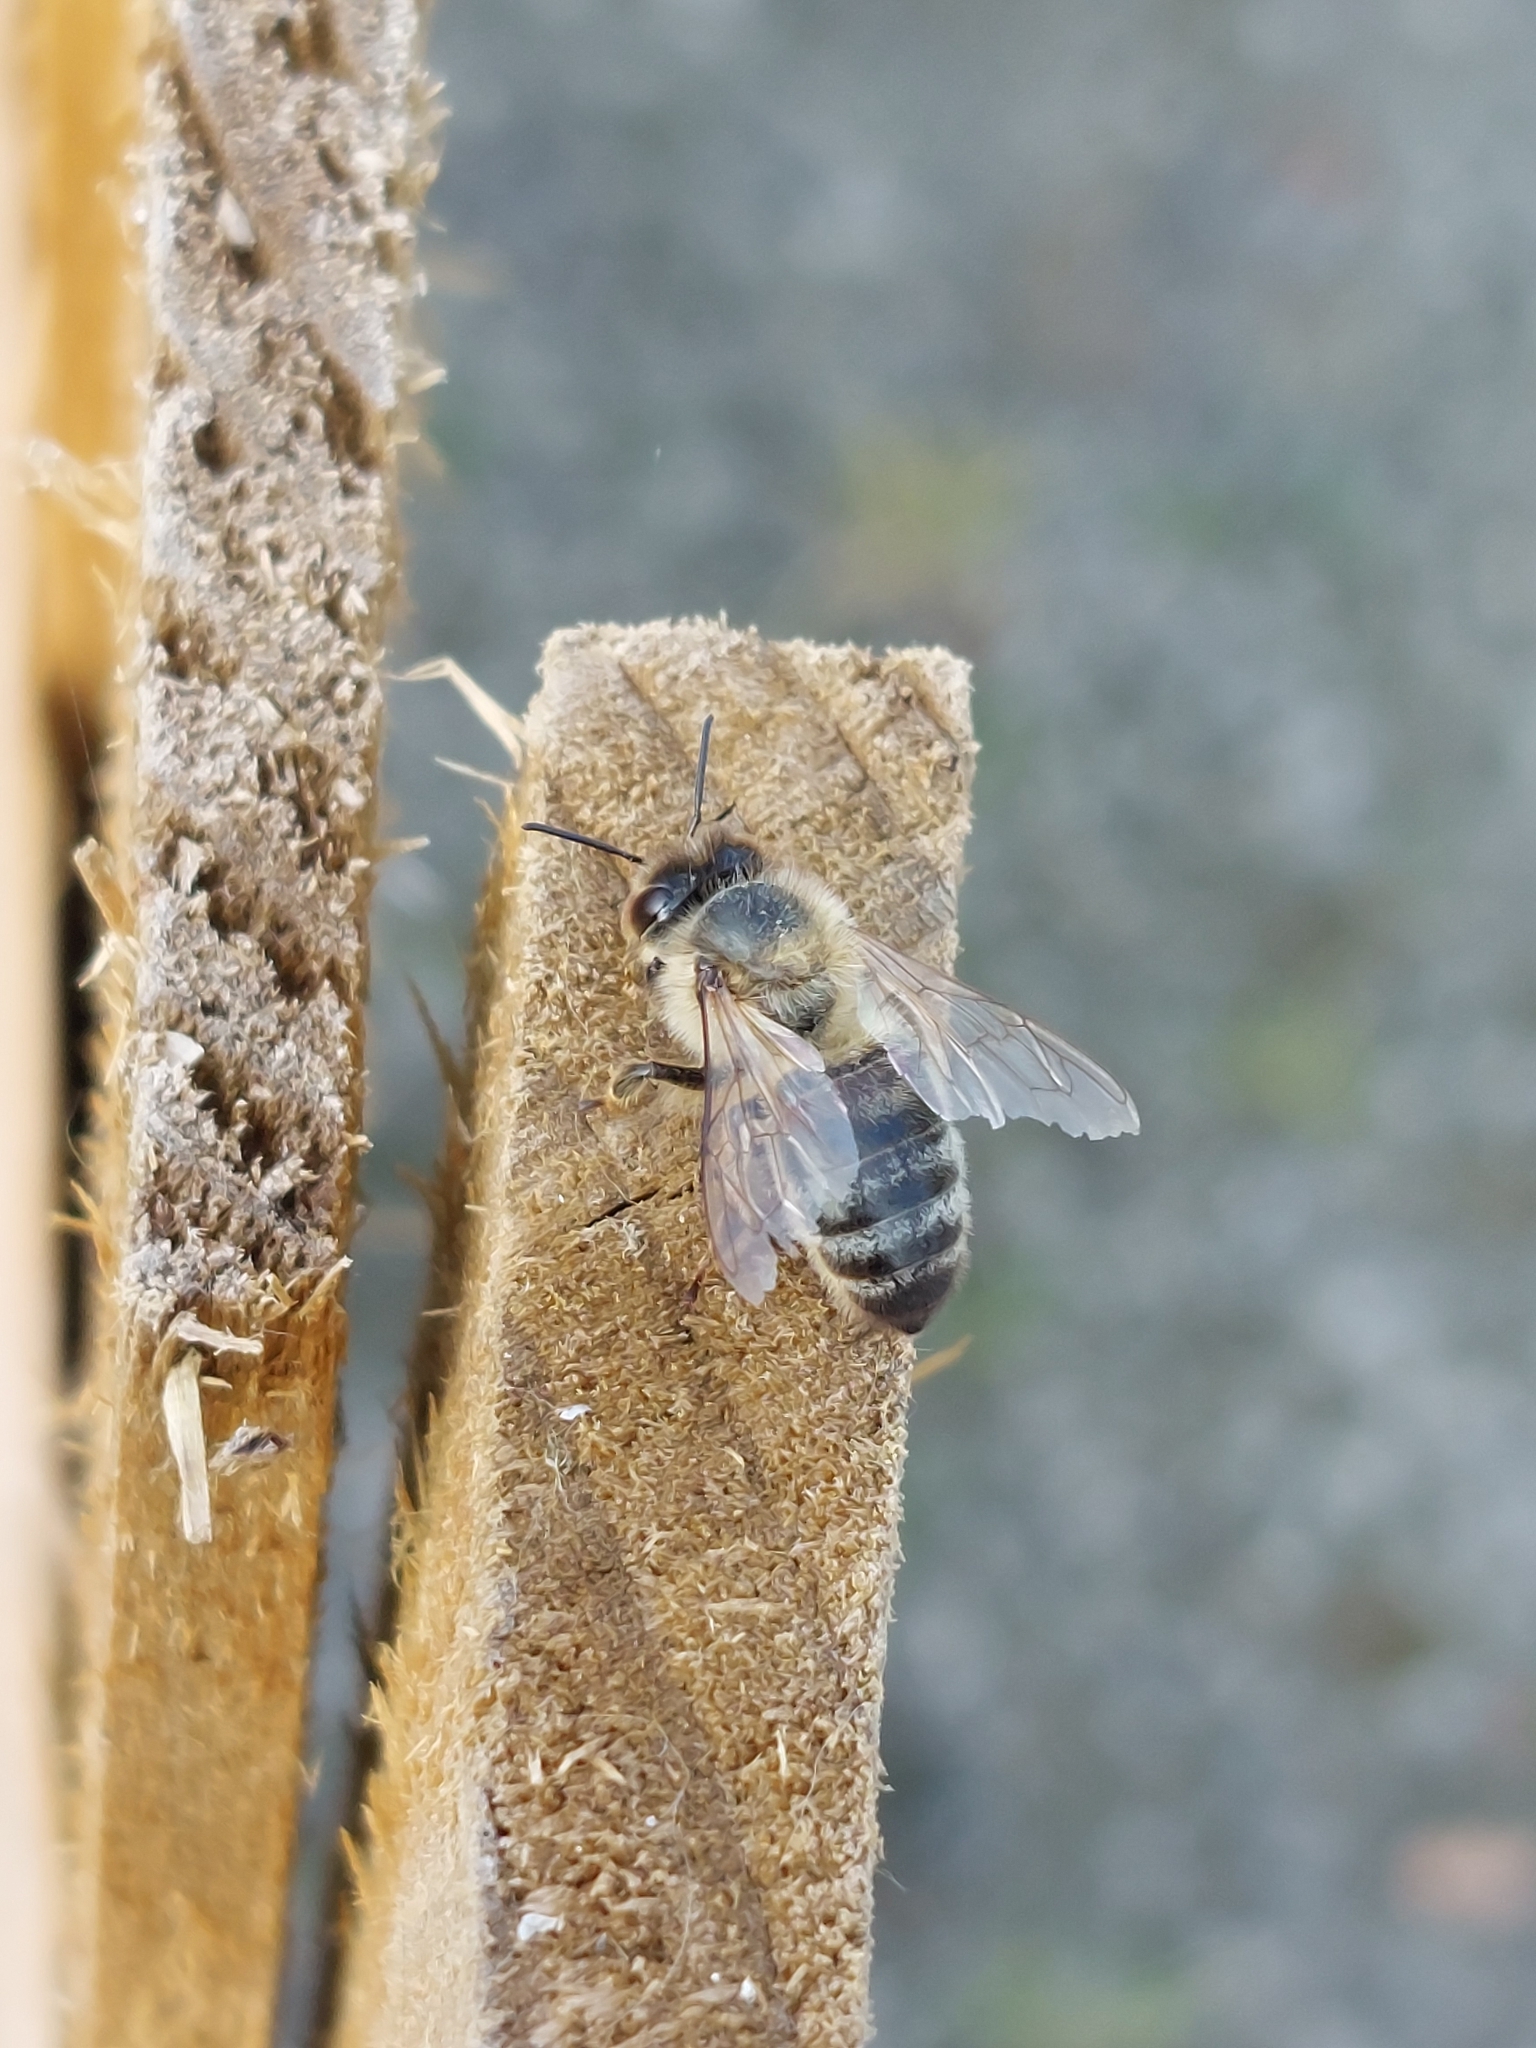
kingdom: Animalia
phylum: Arthropoda
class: Insecta
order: Hymenoptera
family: Apidae
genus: Apis
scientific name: Apis mellifera
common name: Honey bee
